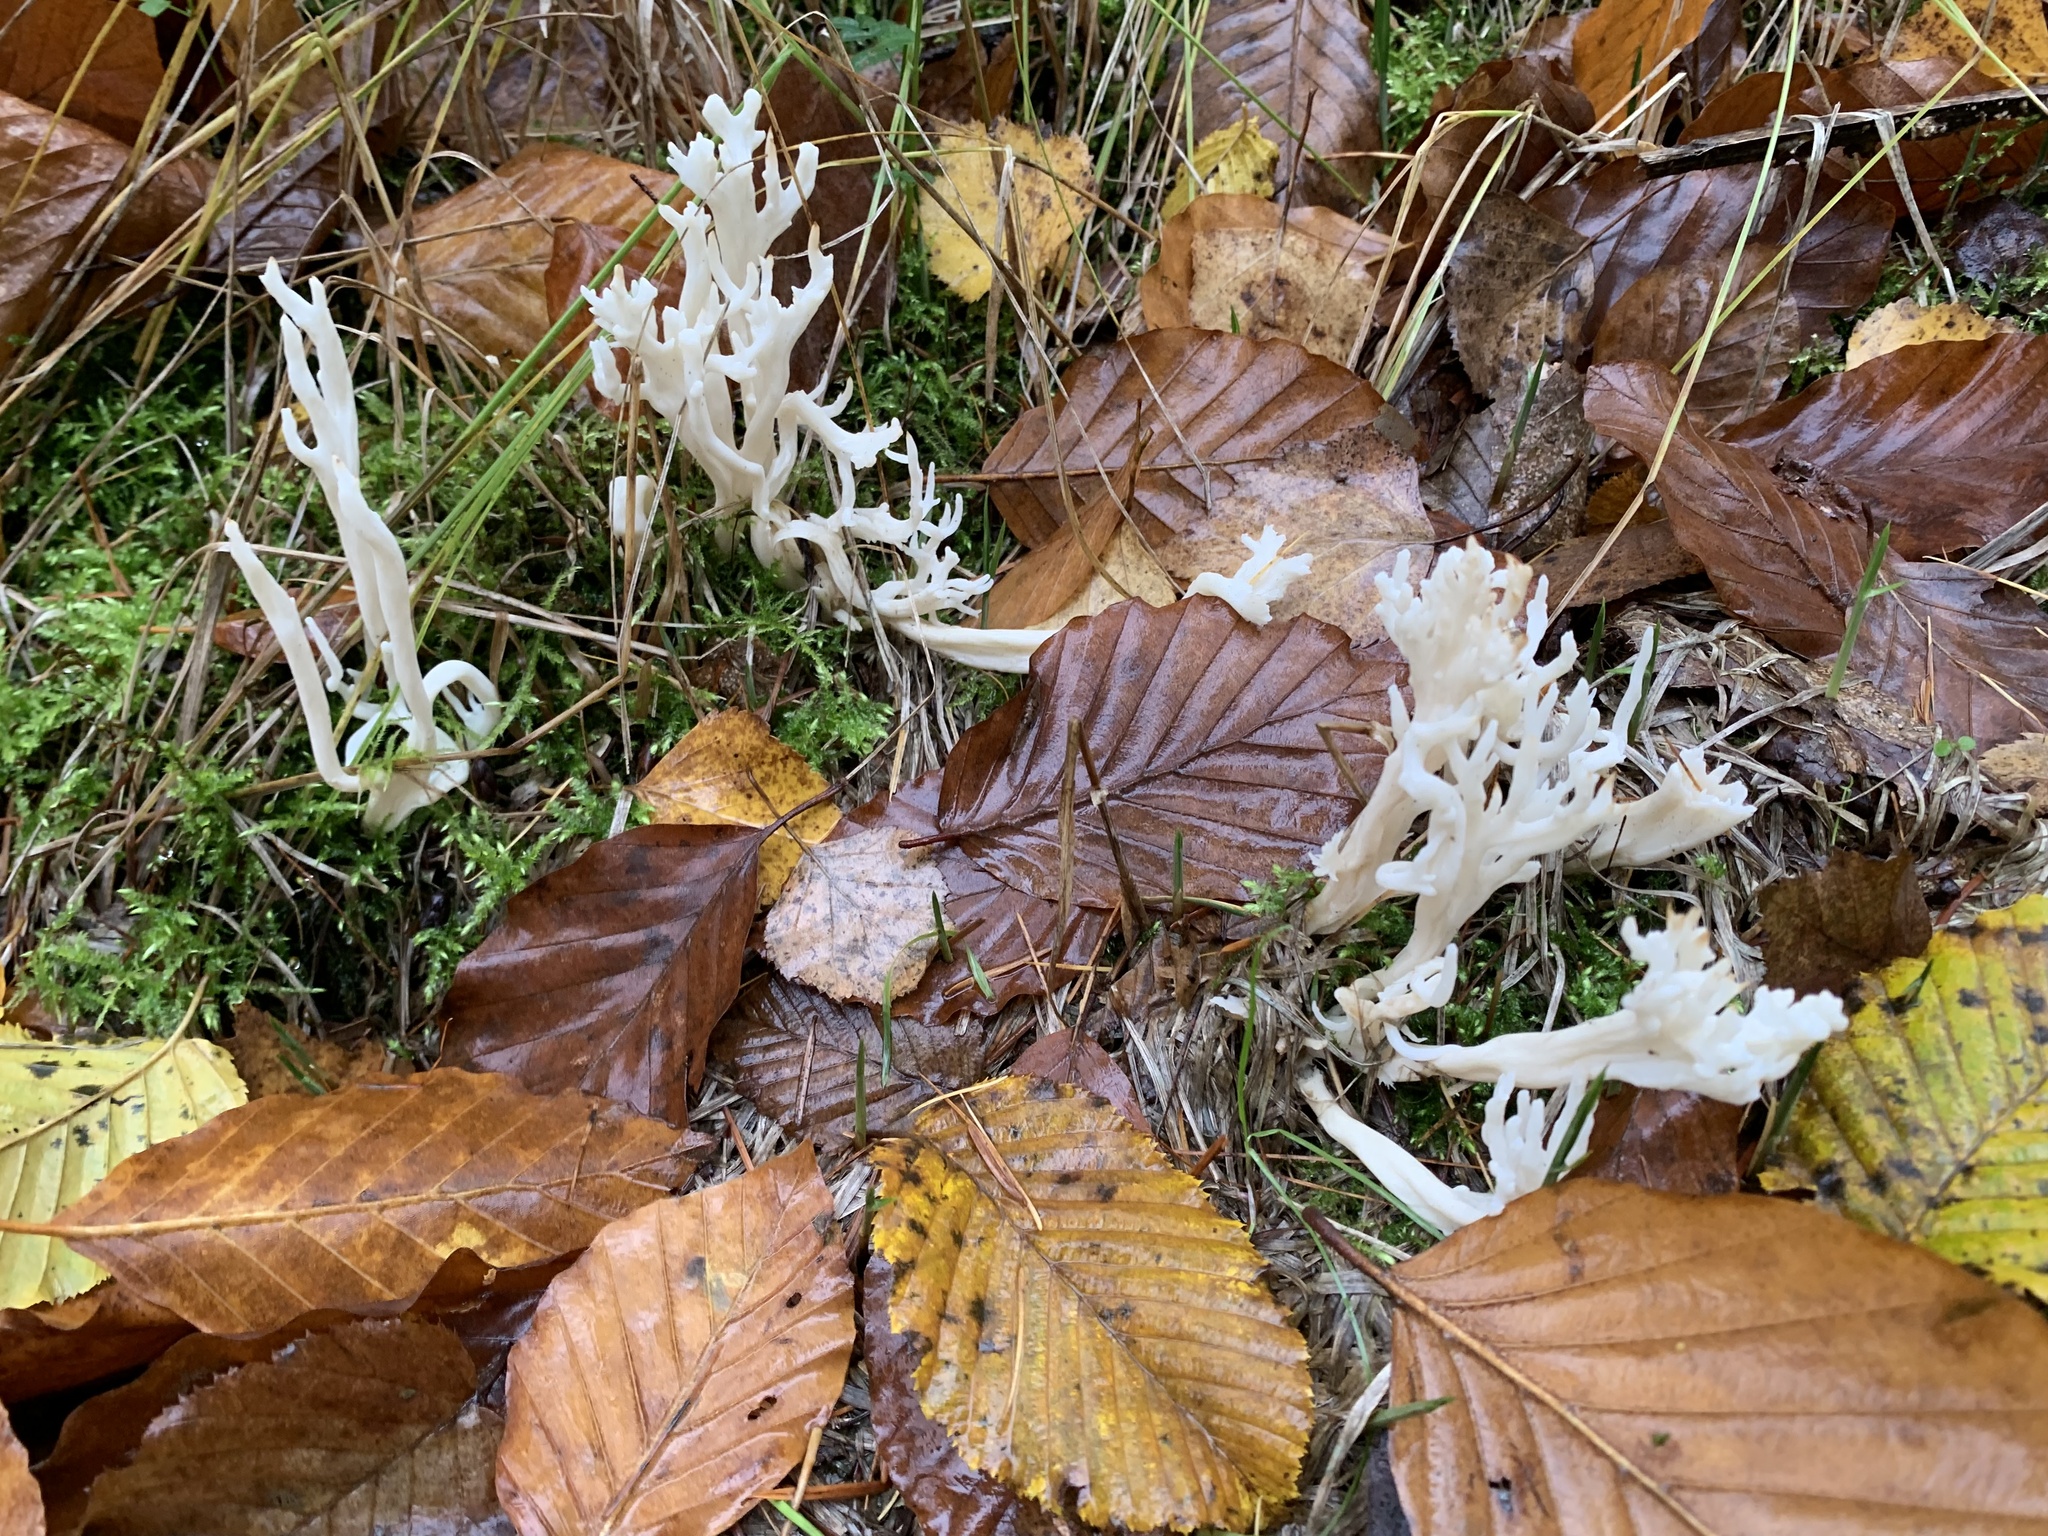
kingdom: Fungi
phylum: Basidiomycota
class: Agaricomycetes
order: Cantharellales
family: Hydnaceae
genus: Clavulina
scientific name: Clavulina coralloides
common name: Crested coral
